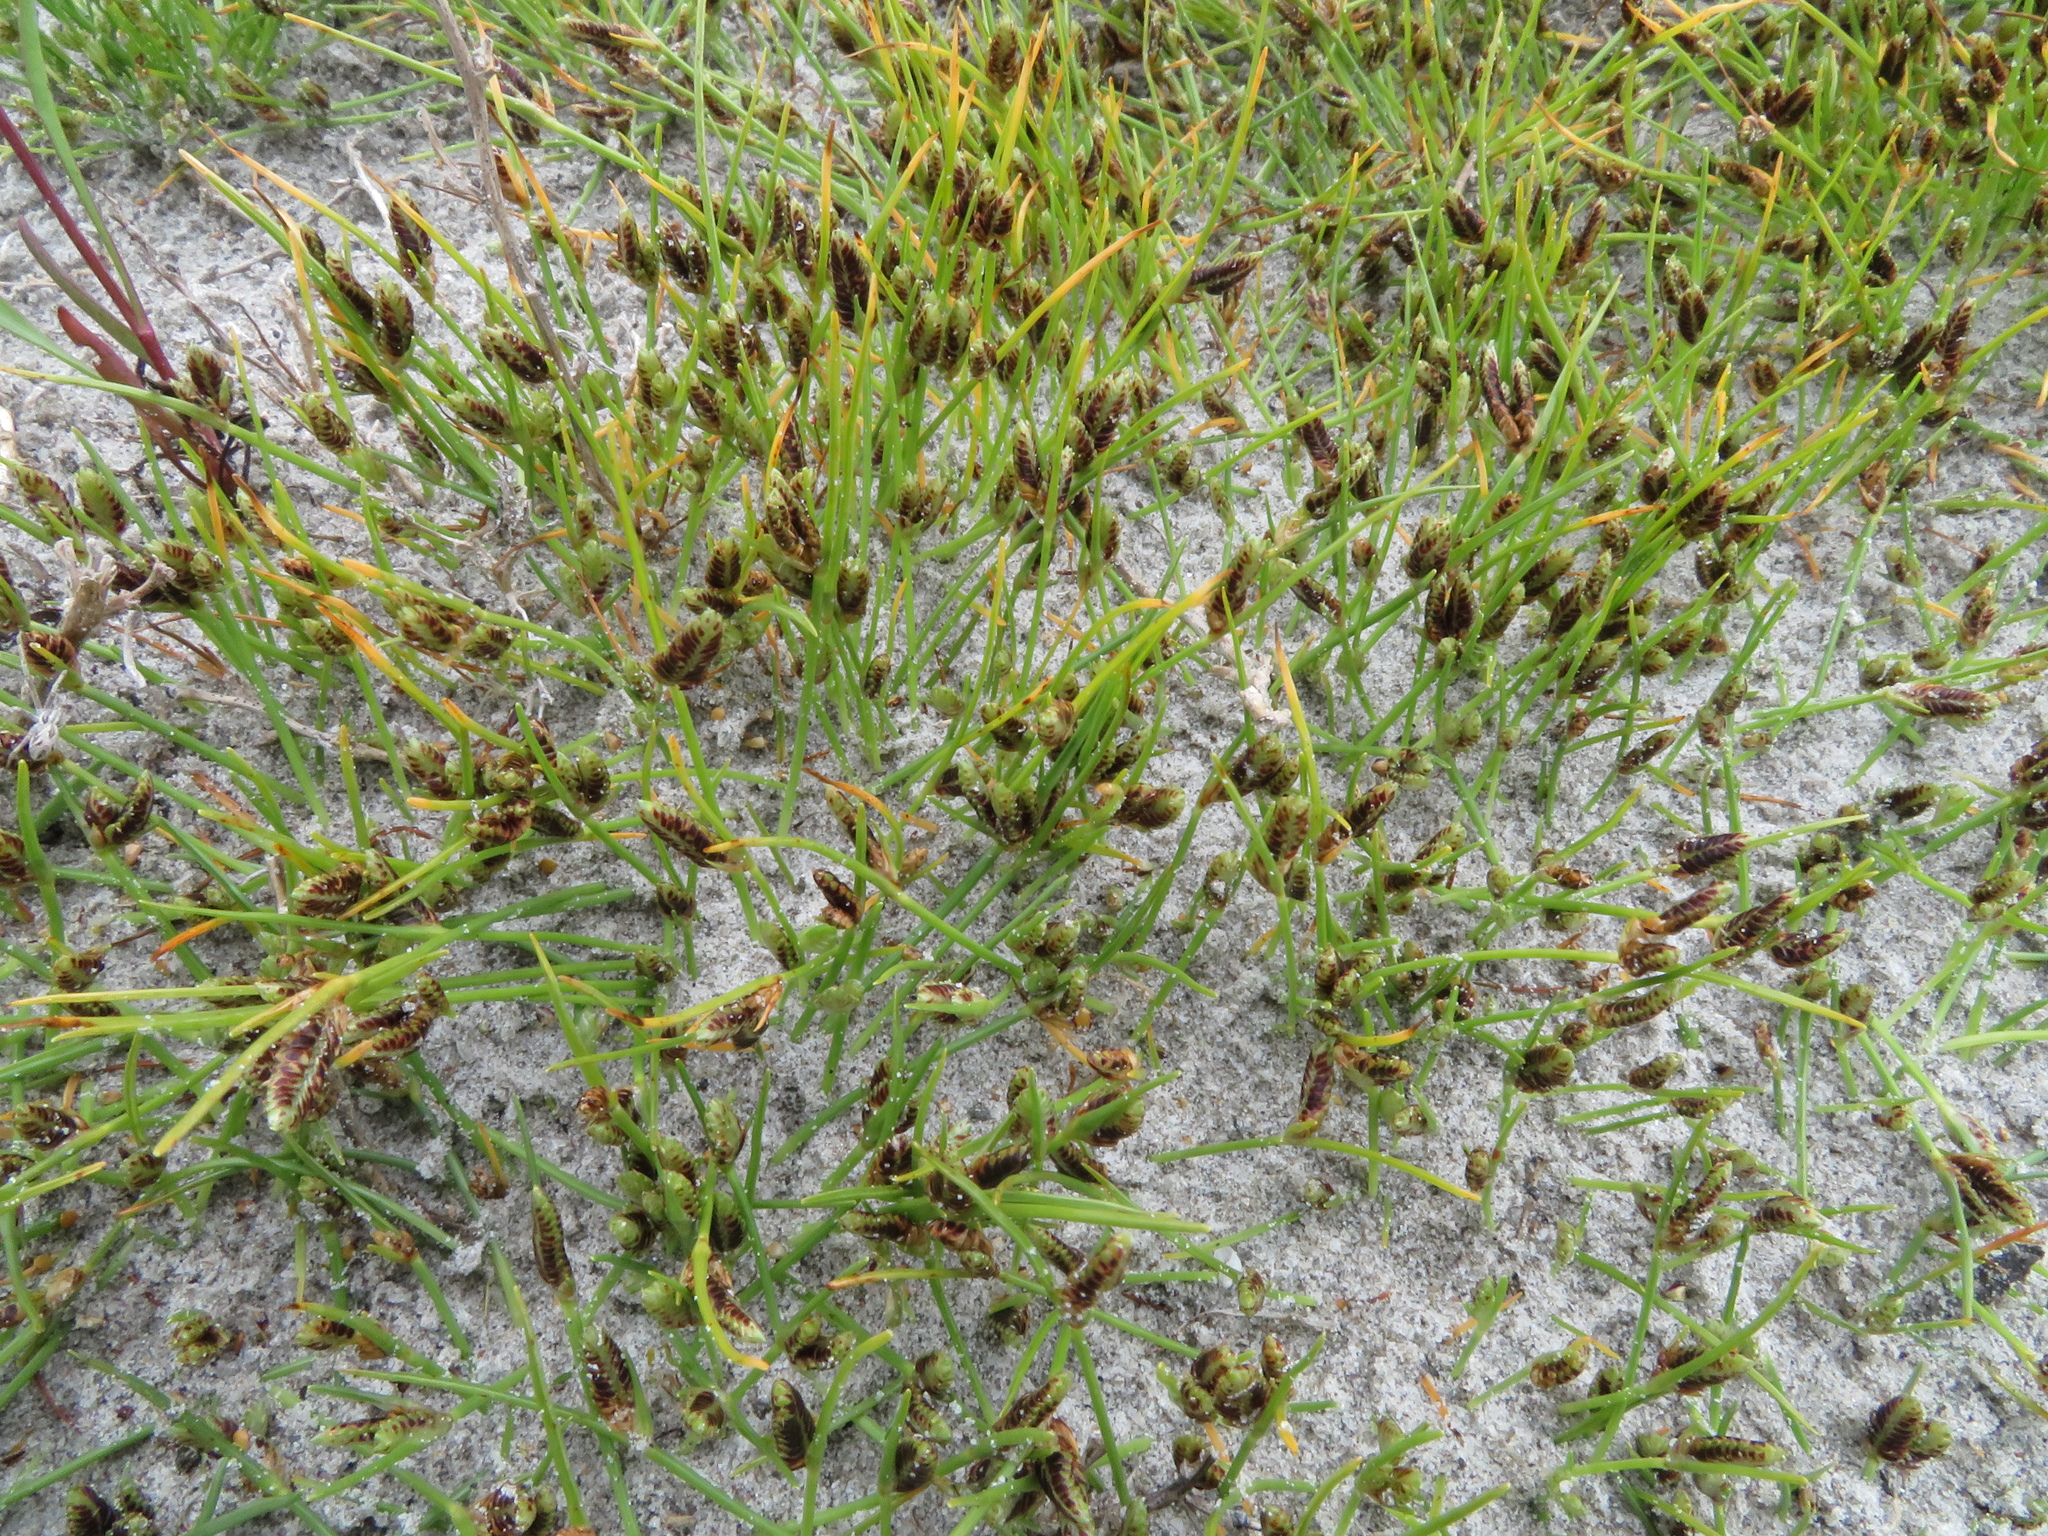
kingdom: Plantae
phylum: Tracheophyta
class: Liliopsida
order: Poales
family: Cyperaceae
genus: Cyperus
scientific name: Cyperus pannonicus
